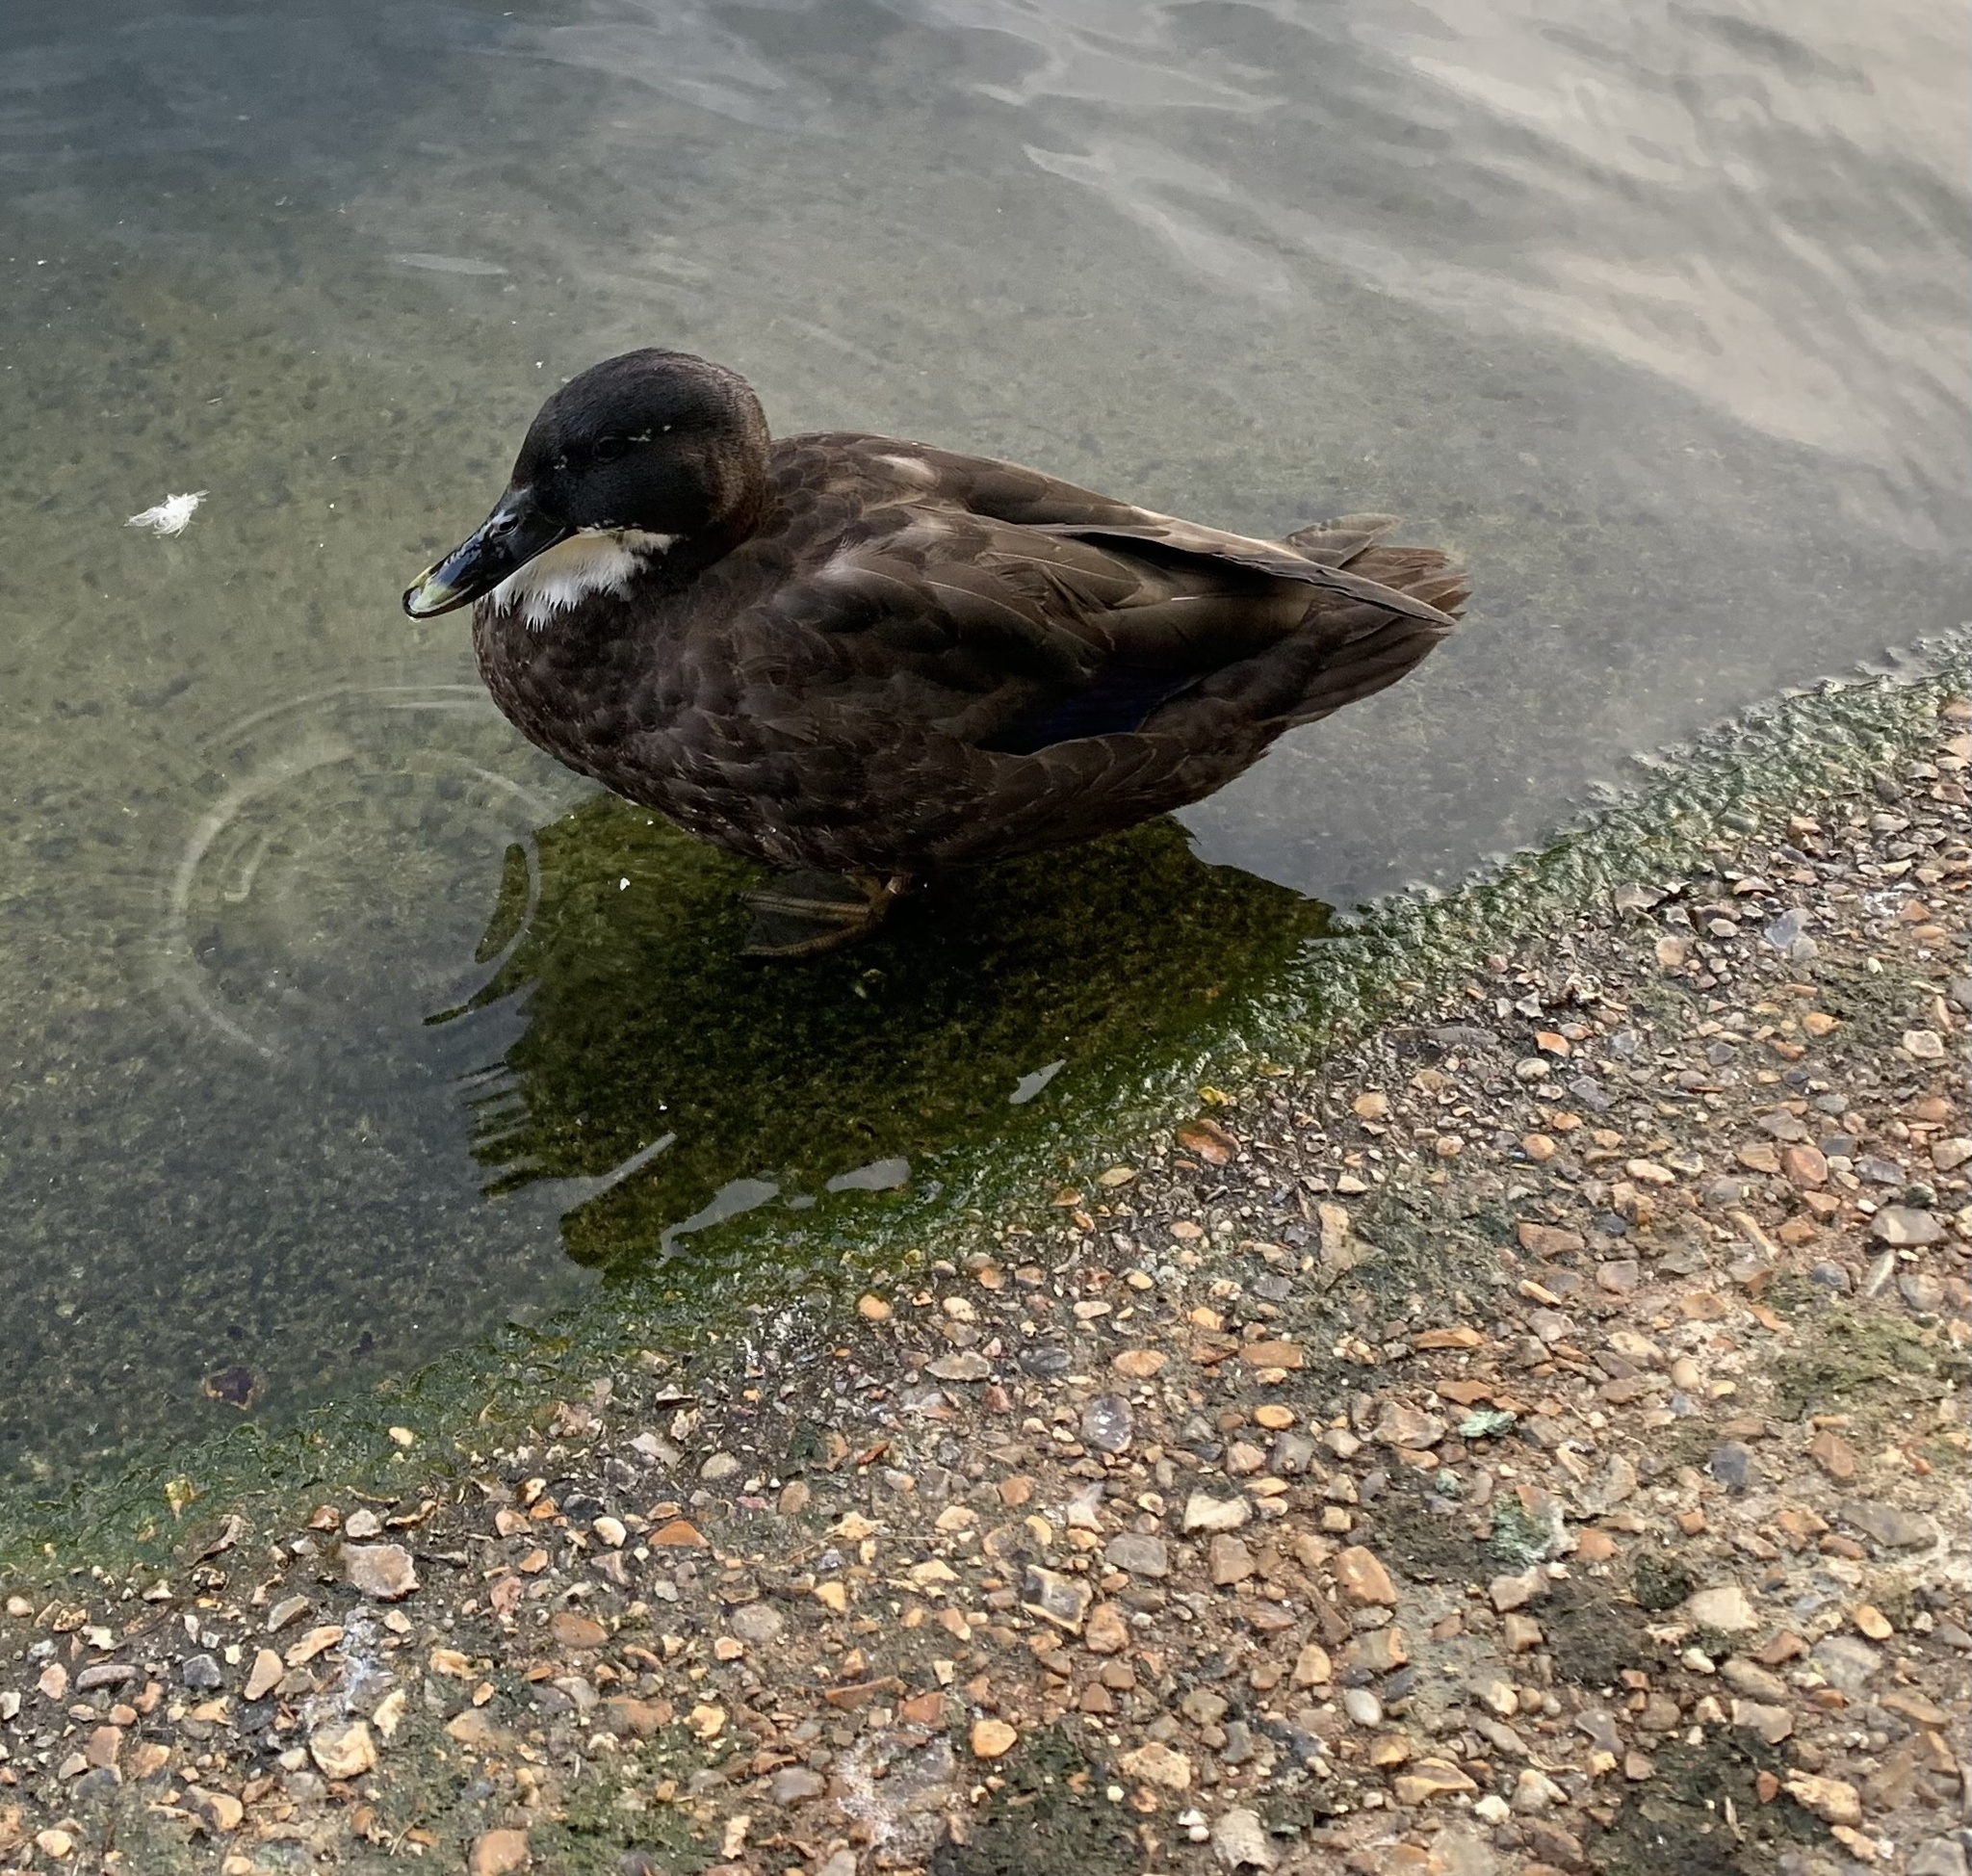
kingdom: Animalia
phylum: Chordata
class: Aves
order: Anseriformes
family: Anatidae
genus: Anas
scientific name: Anas platyrhynchos
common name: Mallard
